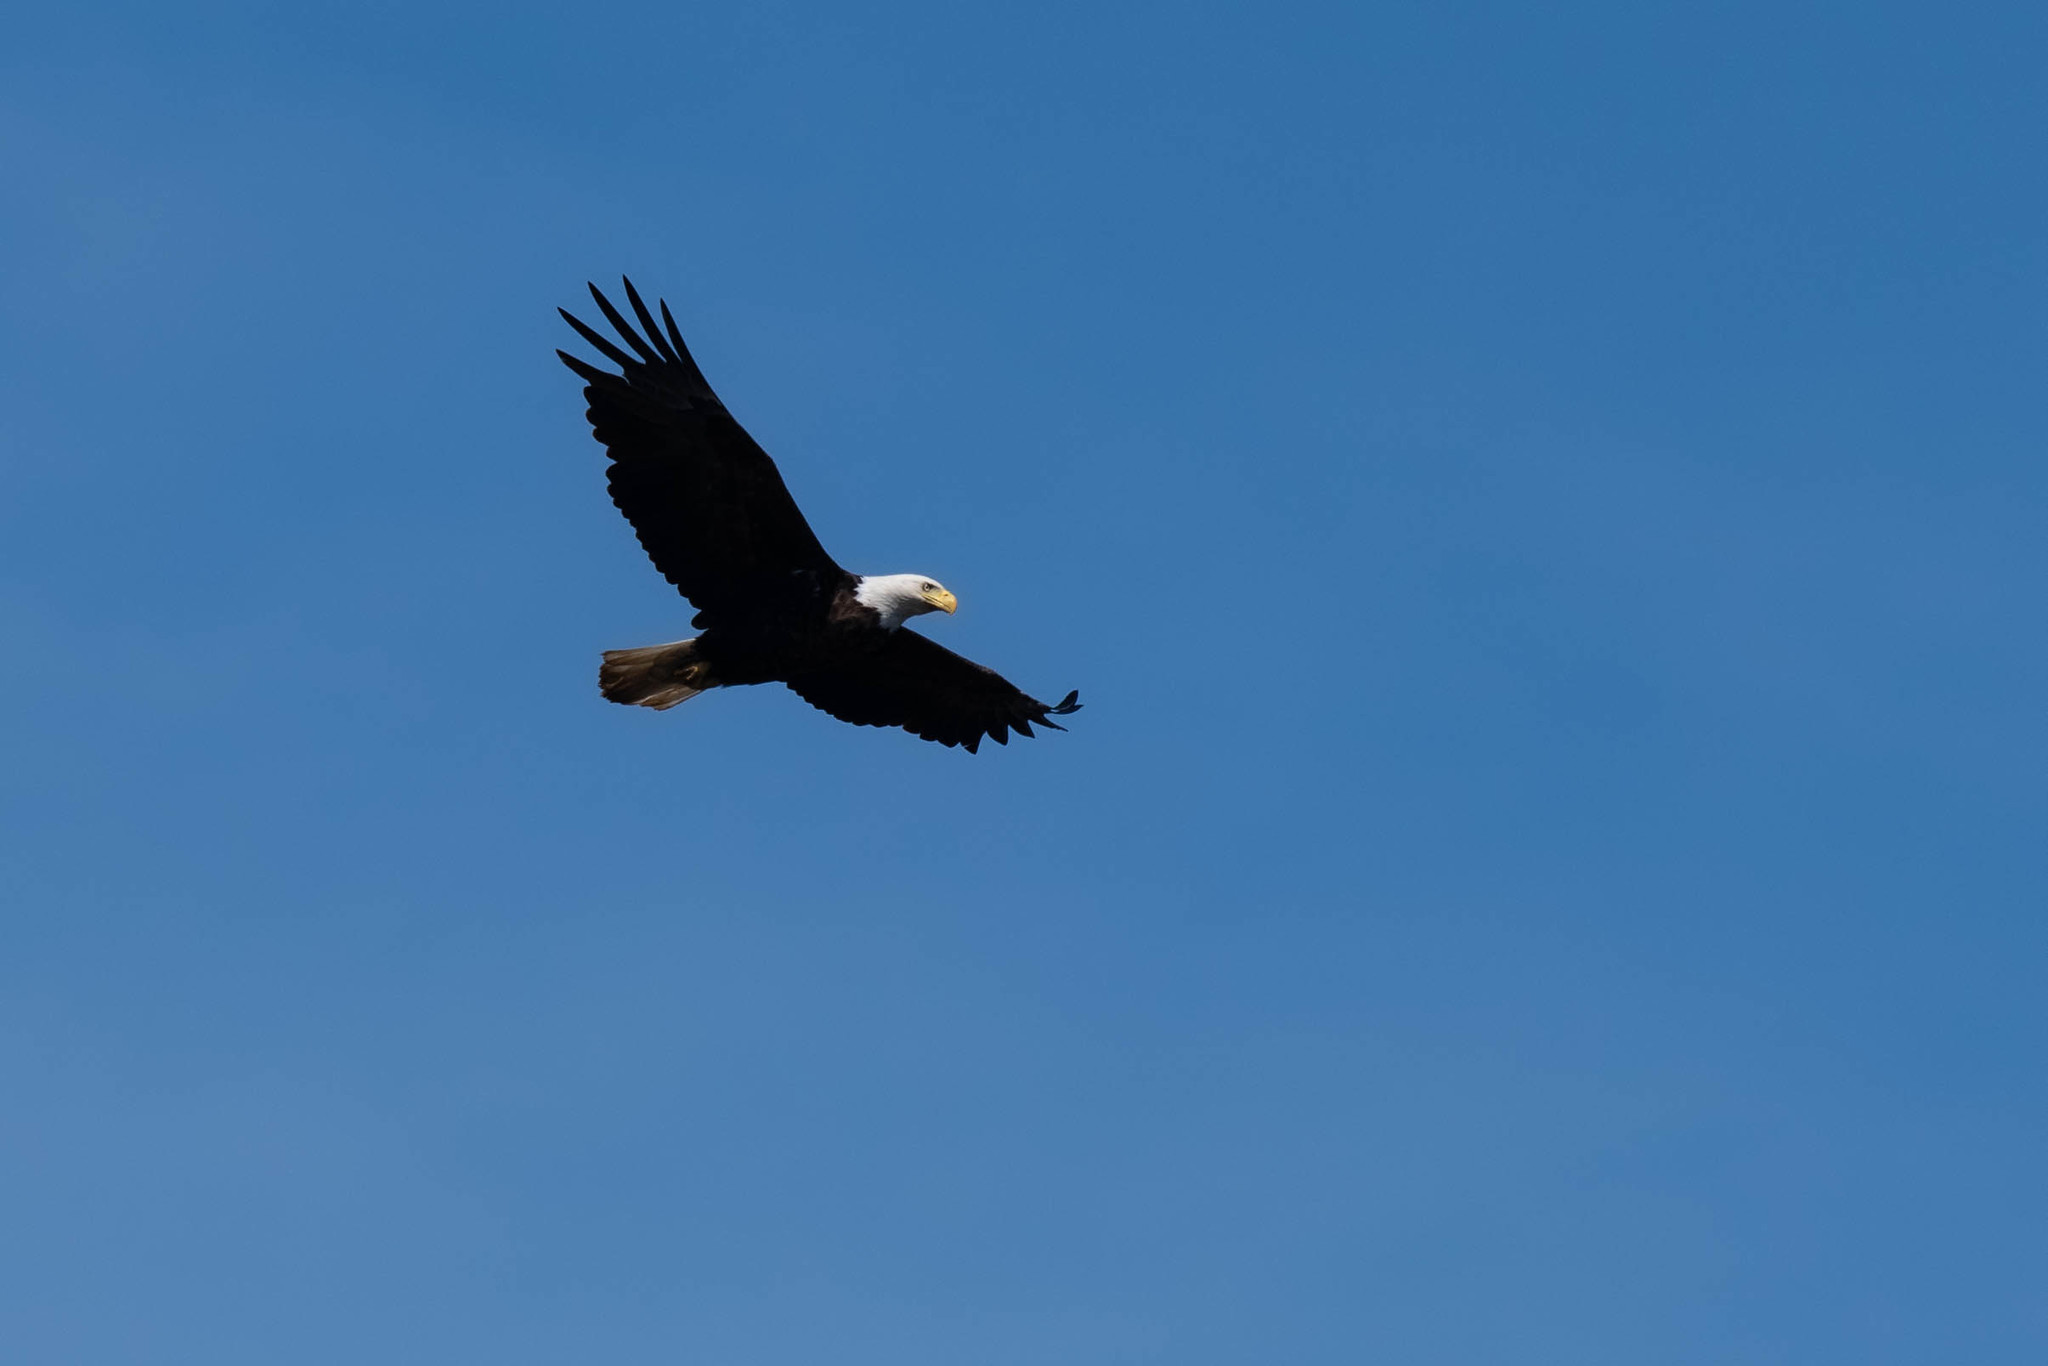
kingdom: Animalia
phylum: Chordata
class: Aves
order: Accipitriformes
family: Accipitridae
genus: Haliaeetus
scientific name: Haliaeetus leucocephalus
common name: Bald eagle
